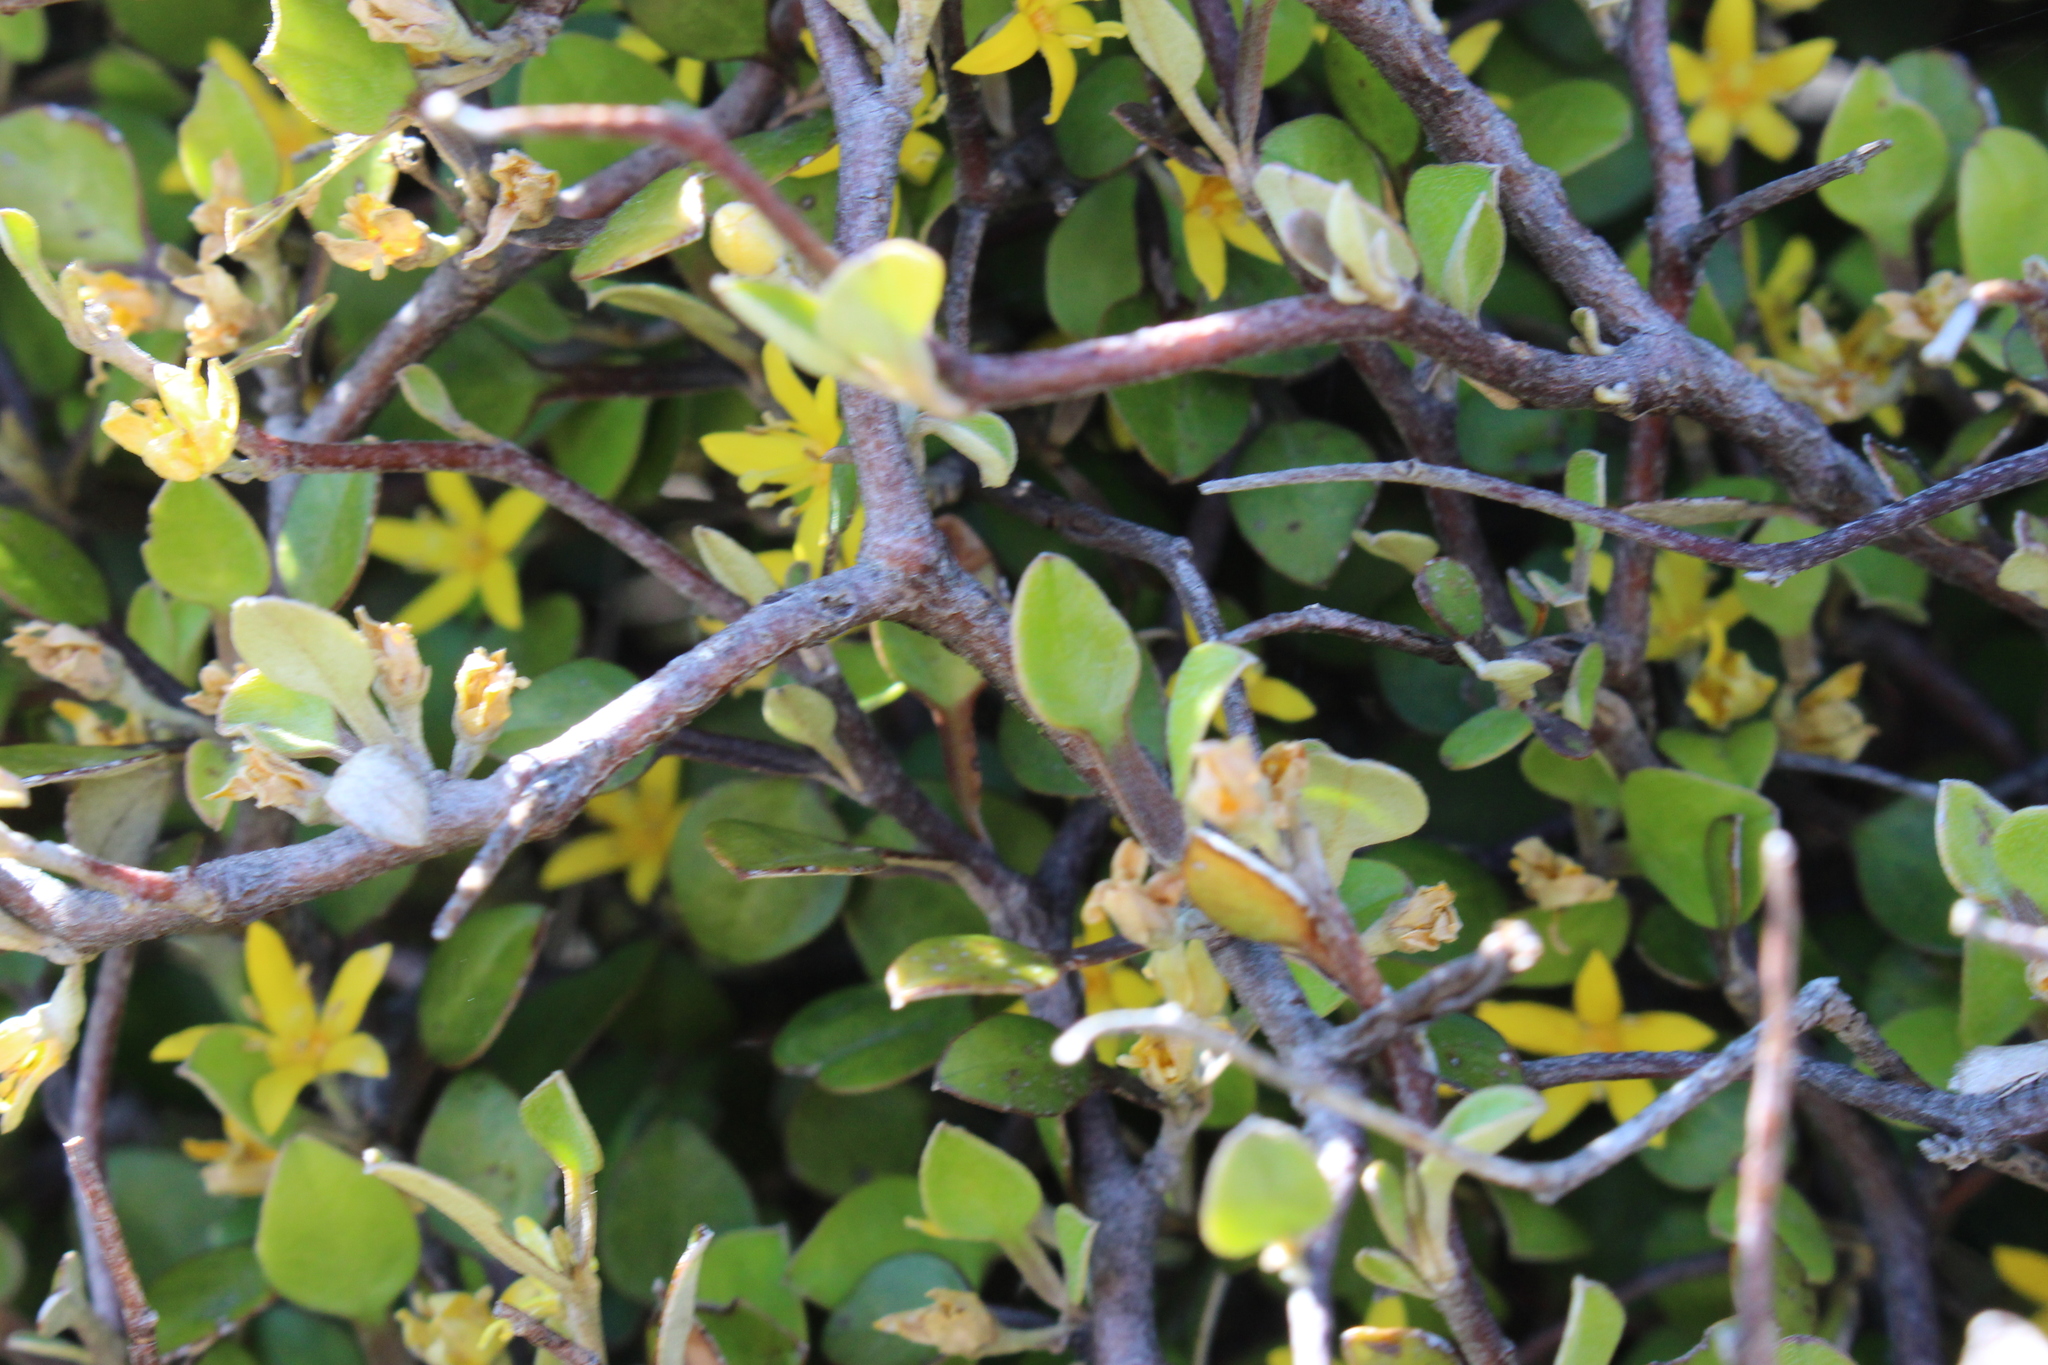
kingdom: Plantae
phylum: Tracheophyta
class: Magnoliopsida
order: Asterales
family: Argophyllaceae
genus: Corokia
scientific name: Corokia cotoneaster
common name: Wire nettingbush
